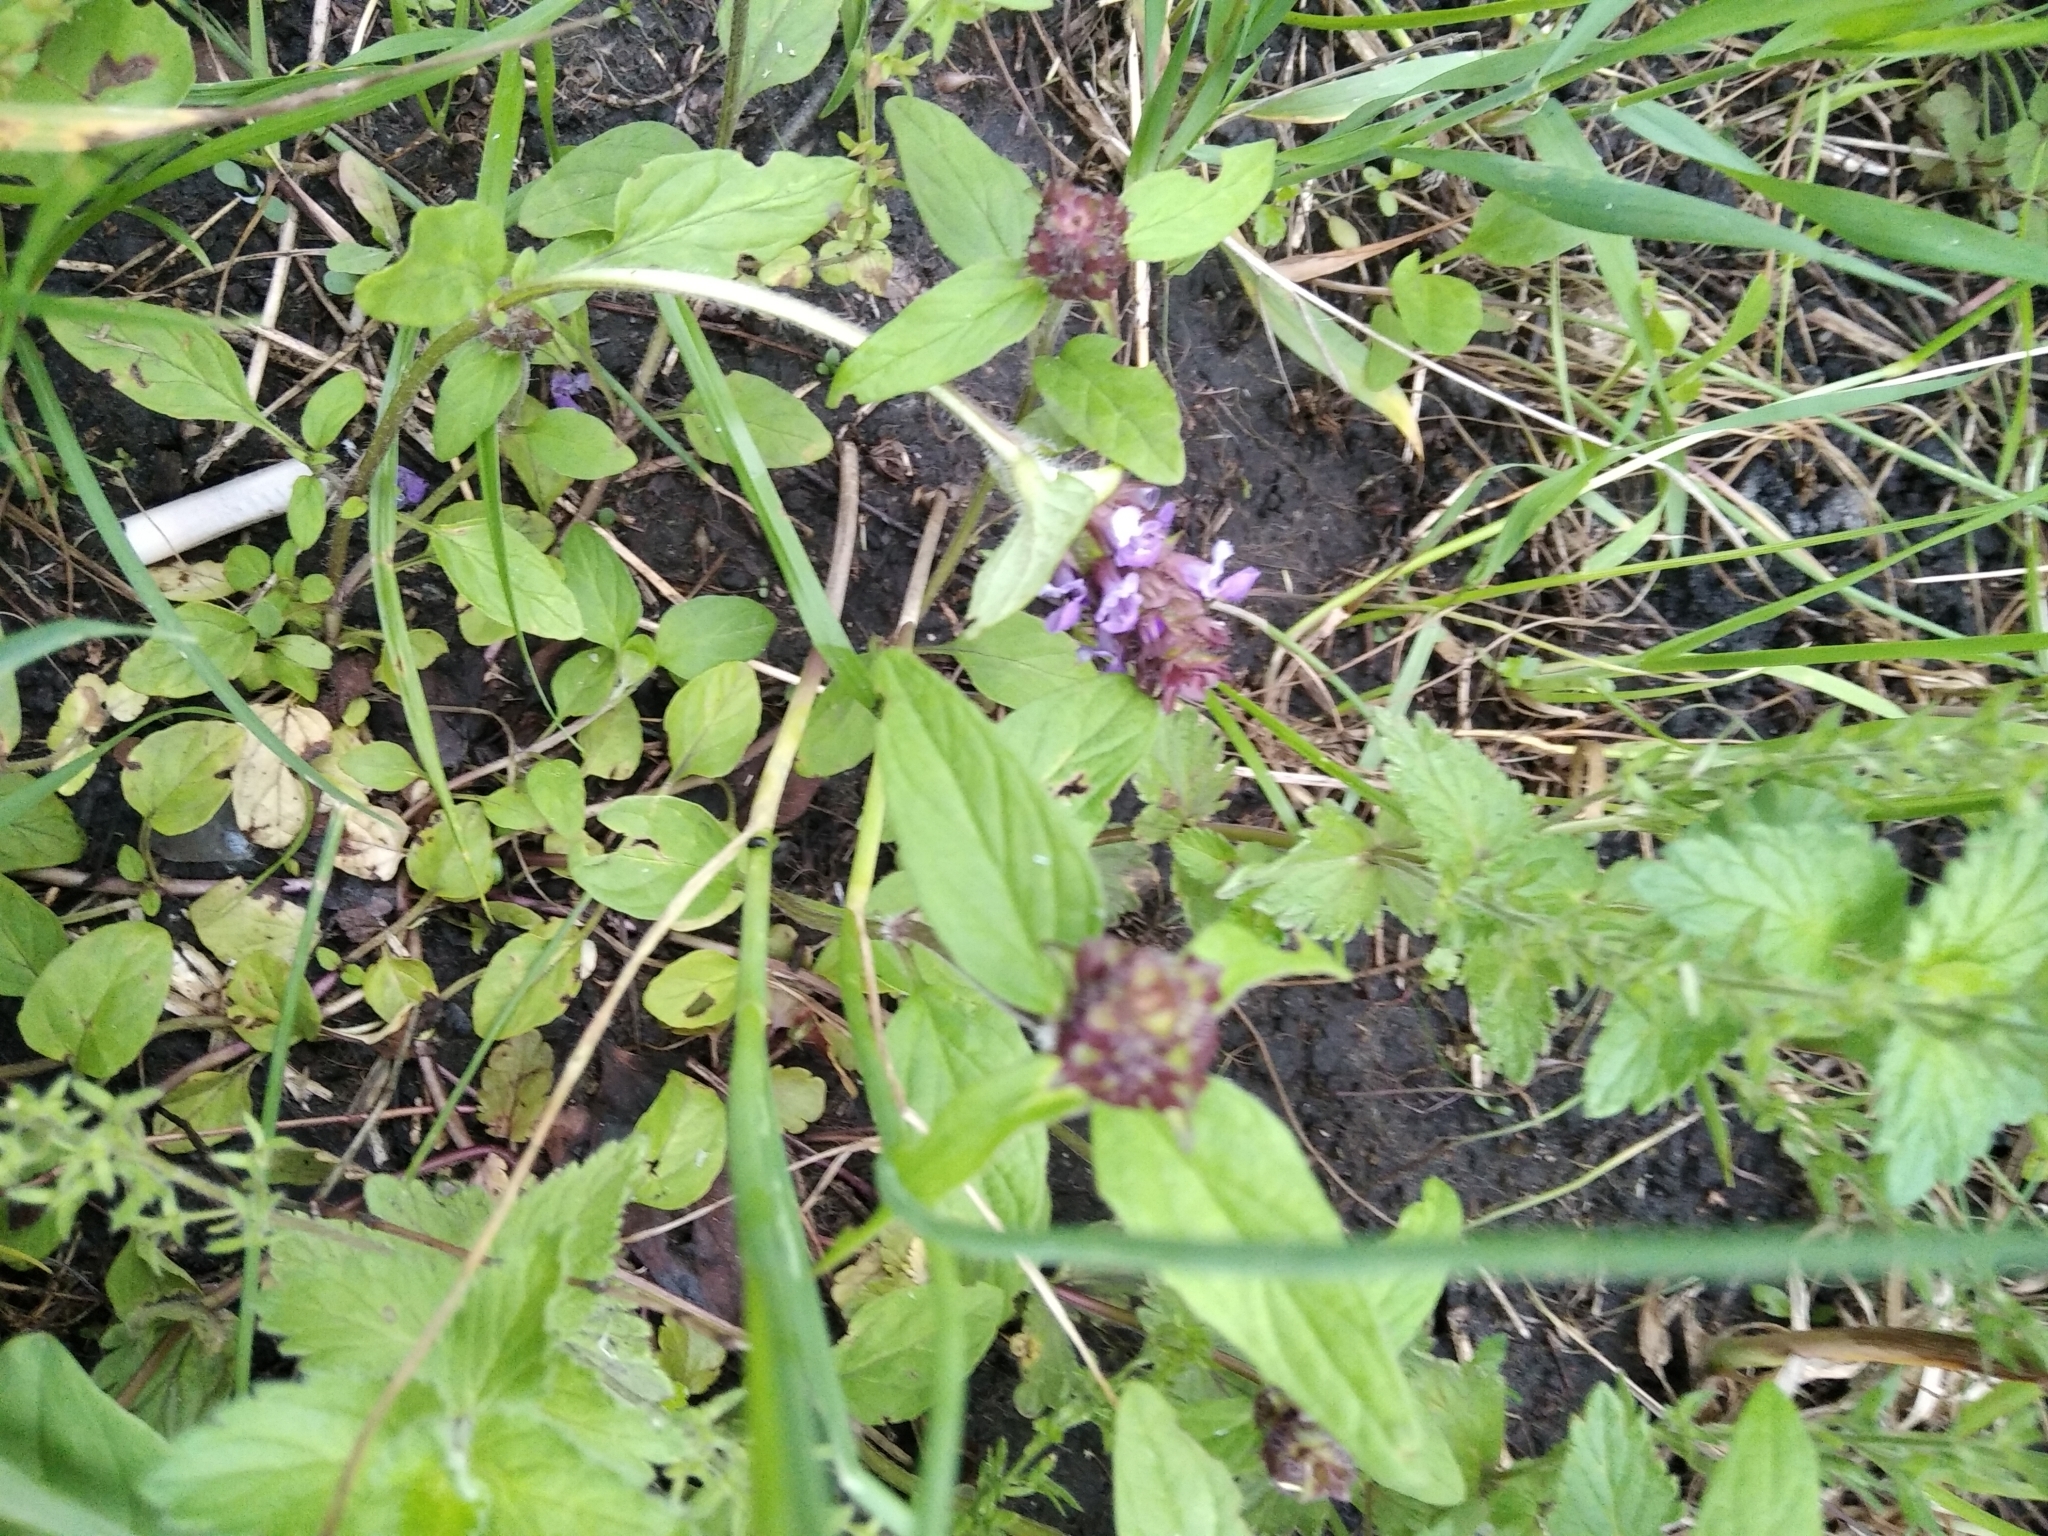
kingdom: Plantae
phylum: Tracheophyta
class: Magnoliopsida
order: Lamiales
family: Lamiaceae
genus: Prunella
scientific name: Prunella vulgaris
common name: Heal-all
